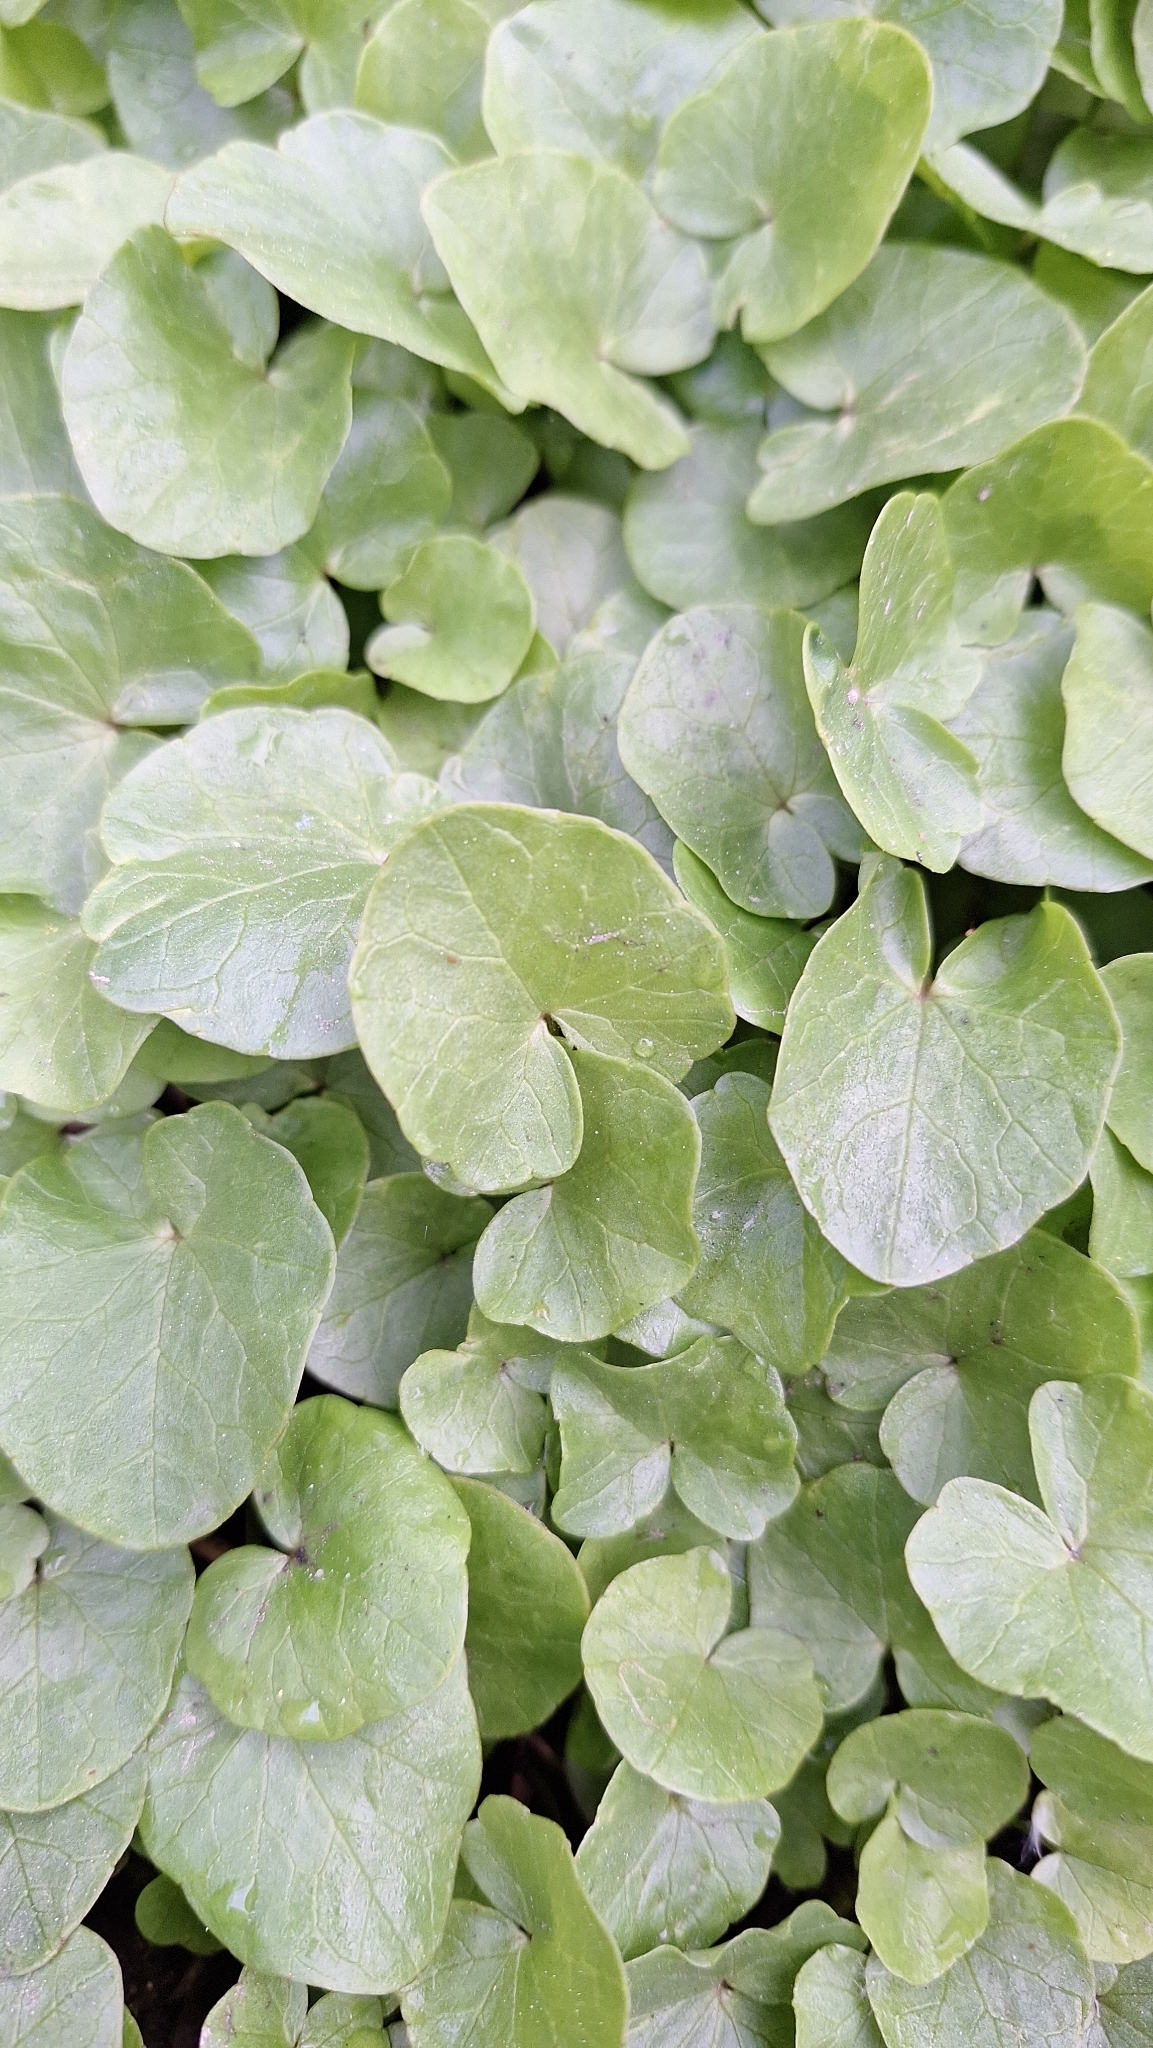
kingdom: Plantae
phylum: Tracheophyta
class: Magnoliopsida
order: Ranunculales
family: Ranunculaceae
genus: Ficaria
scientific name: Ficaria verna
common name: Lesser celandine
